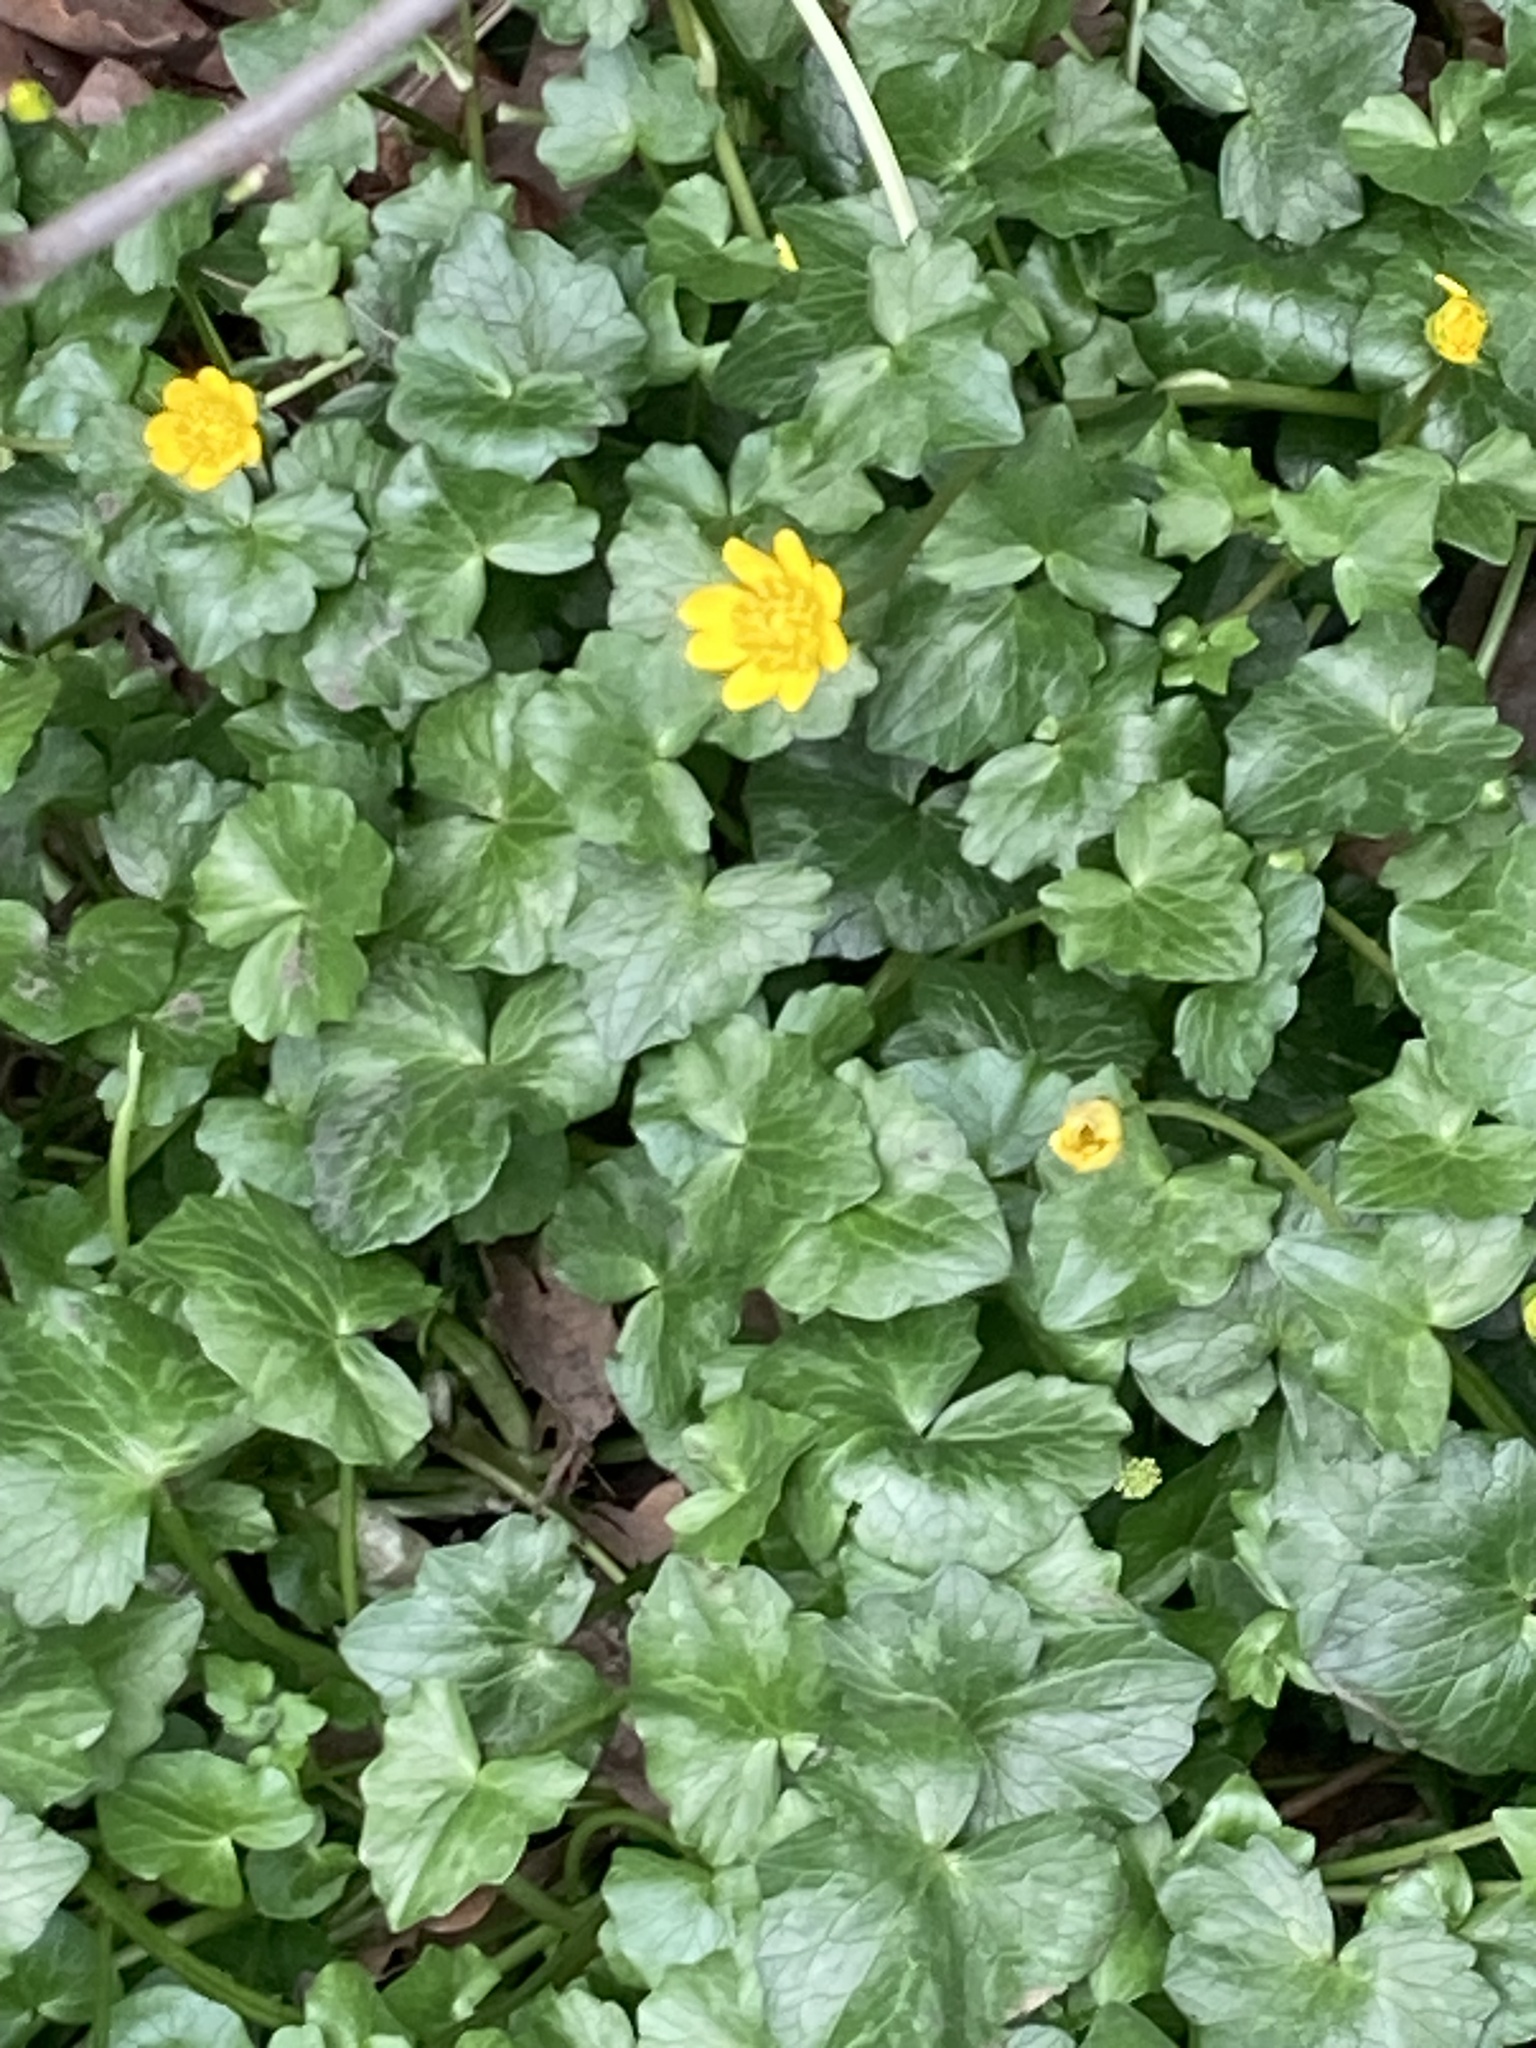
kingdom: Plantae
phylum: Tracheophyta
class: Magnoliopsida
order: Ranunculales
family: Ranunculaceae
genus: Ficaria
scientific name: Ficaria verna
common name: Lesser celandine
